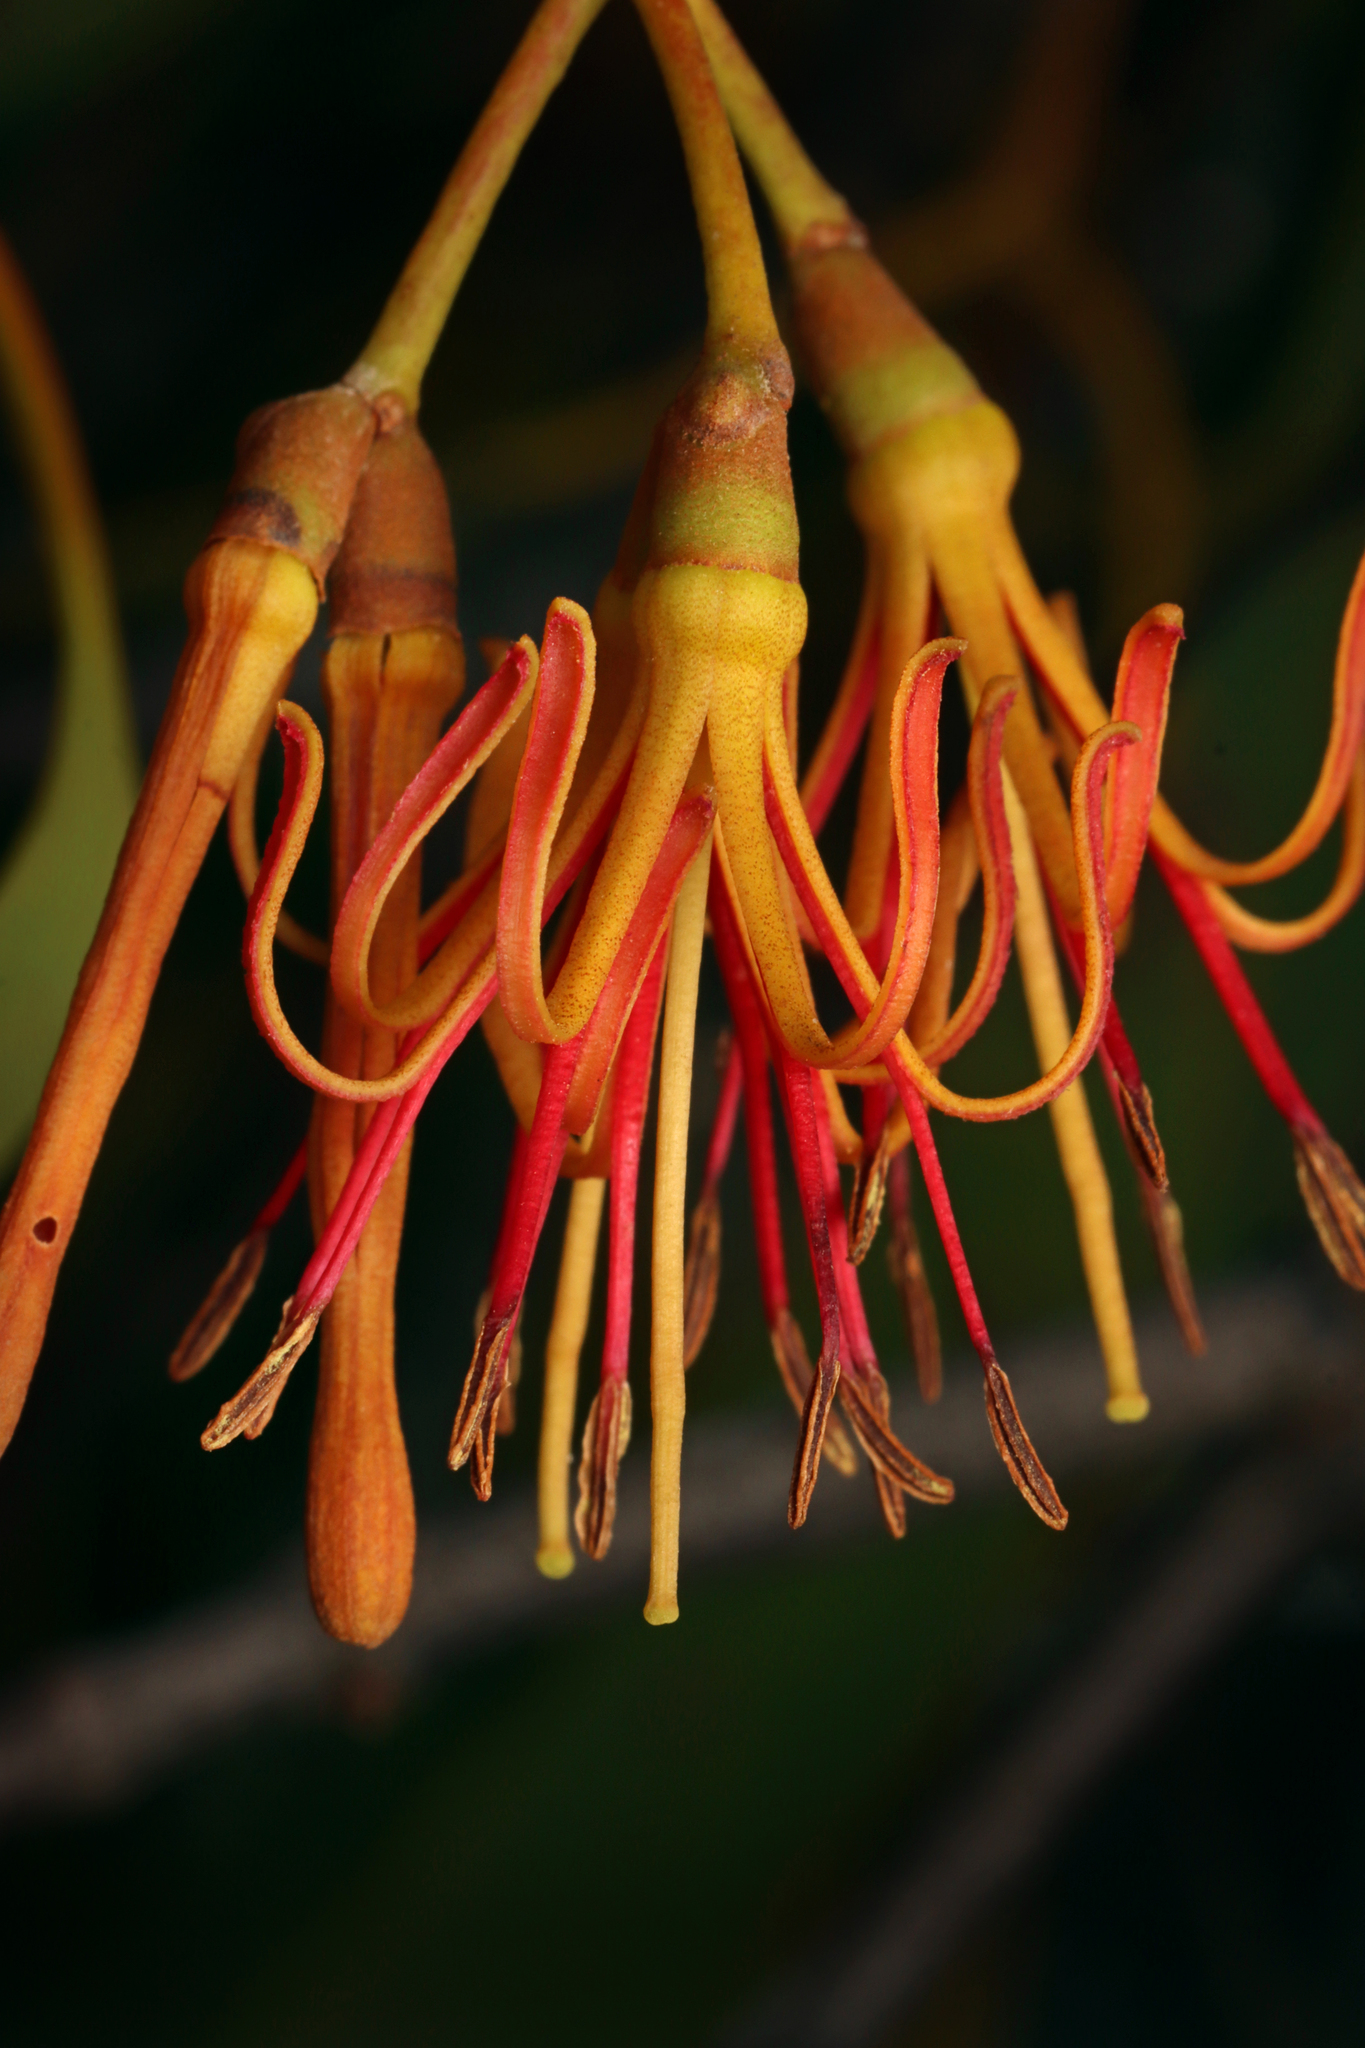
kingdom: Plantae
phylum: Tracheophyta
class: Magnoliopsida
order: Santalales
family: Loranthaceae
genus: Amyema
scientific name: Amyema miquelii
